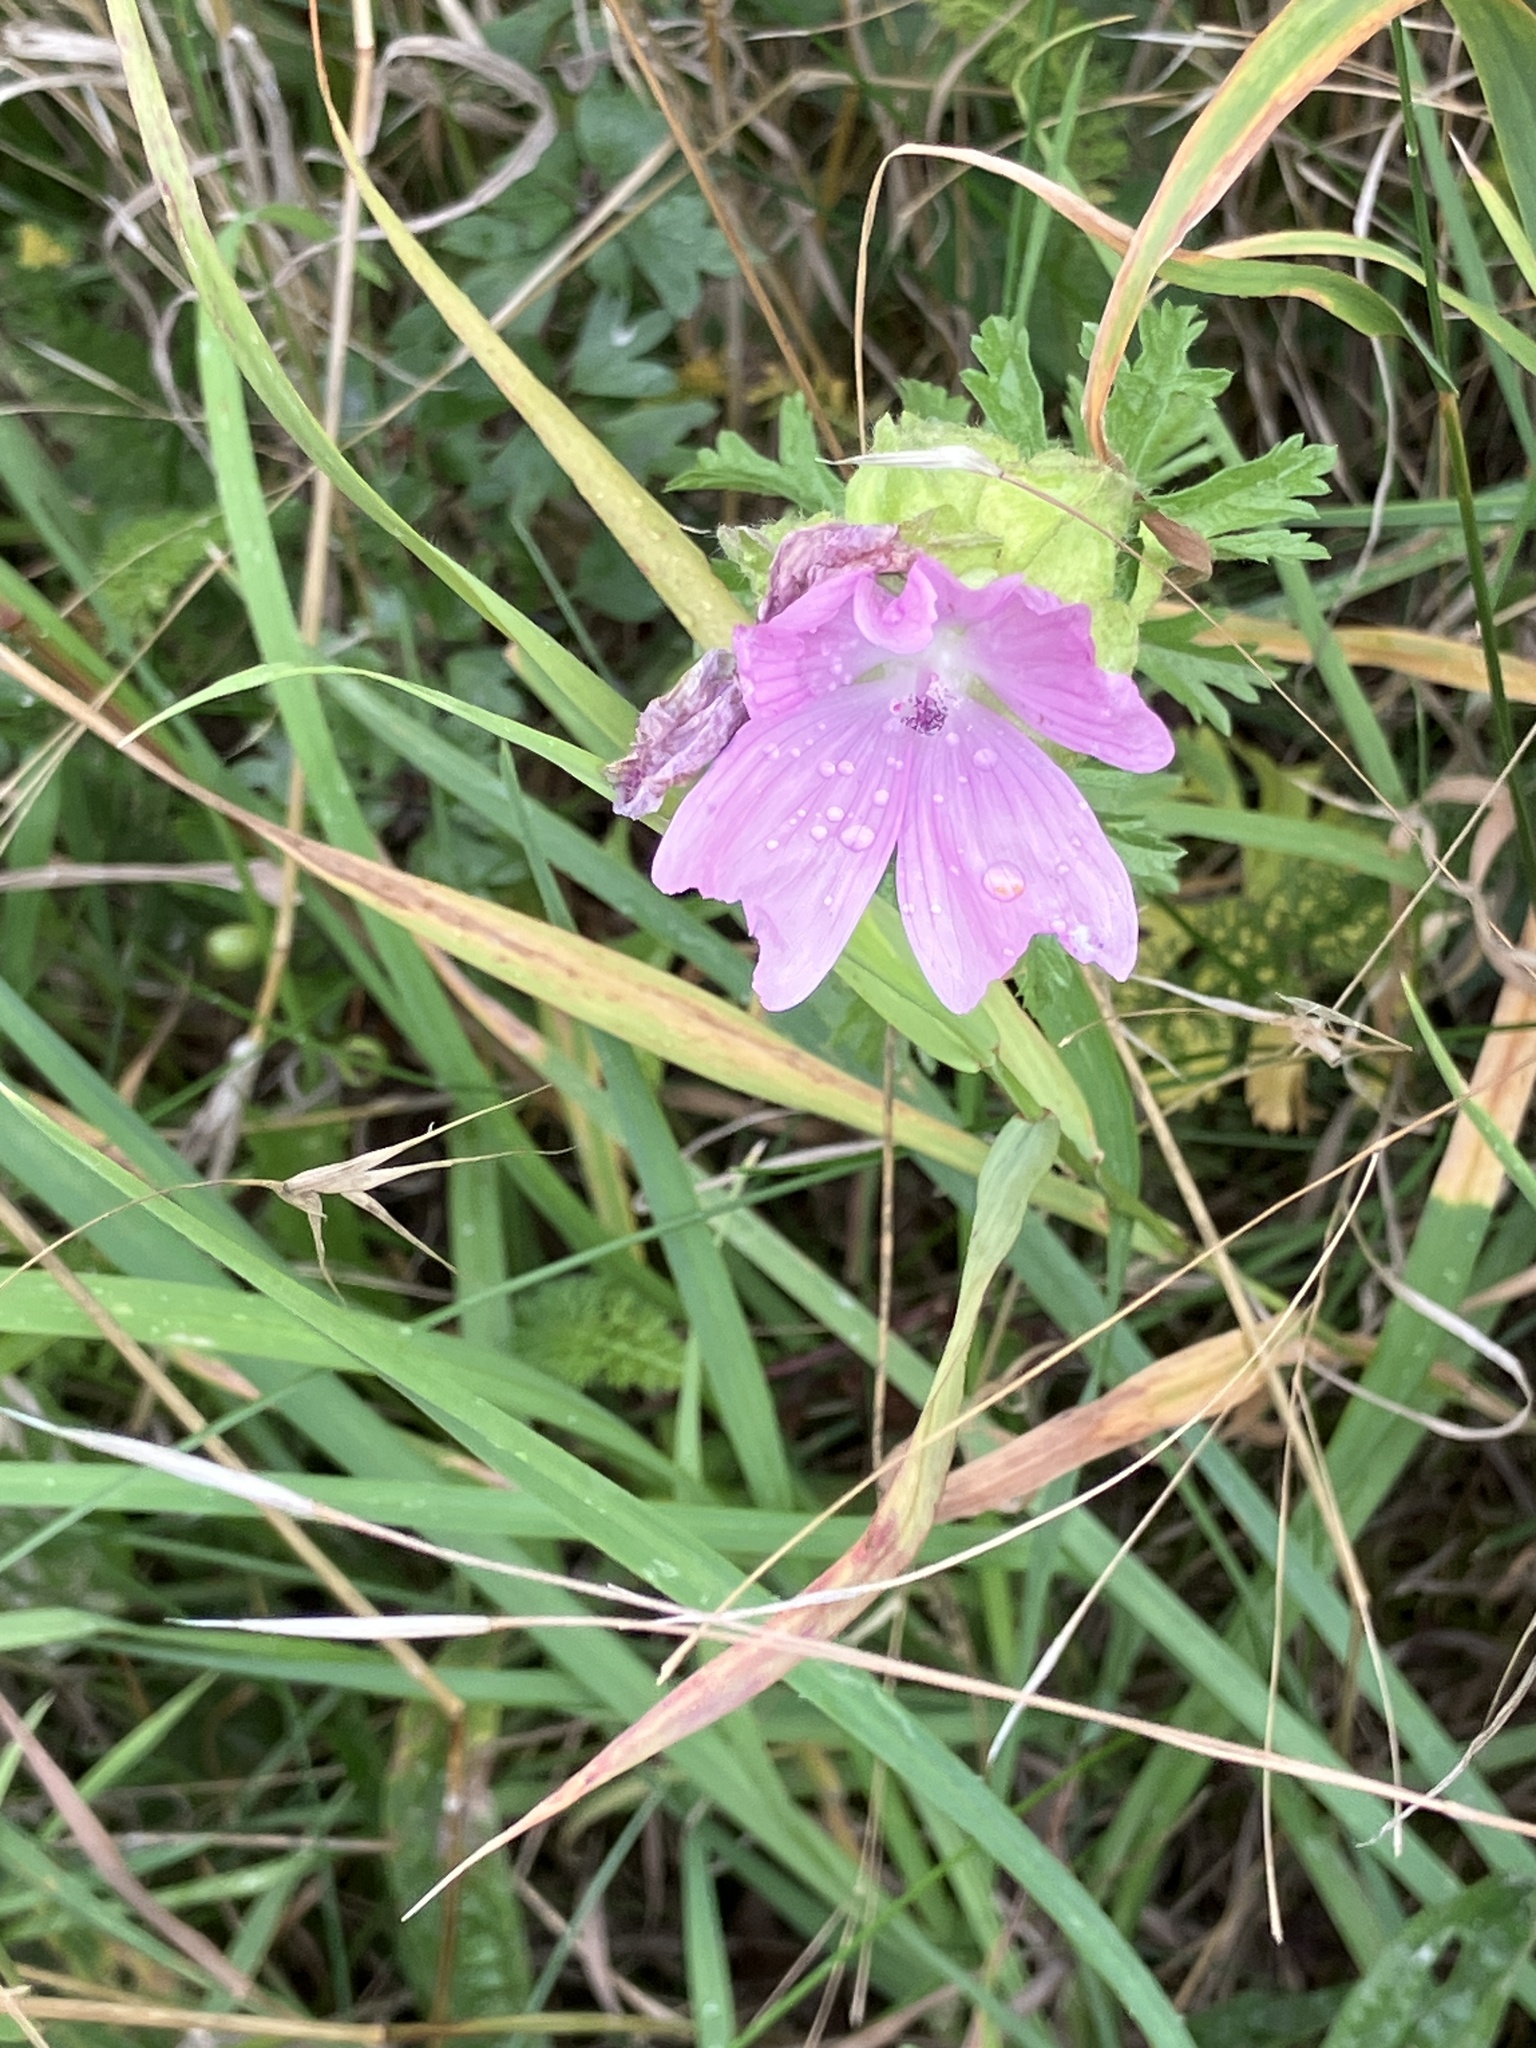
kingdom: Plantae
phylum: Tracheophyta
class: Magnoliopsida
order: Malvales
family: Malvaceae
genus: Malva
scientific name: Malva moschata
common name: Musk mallow
